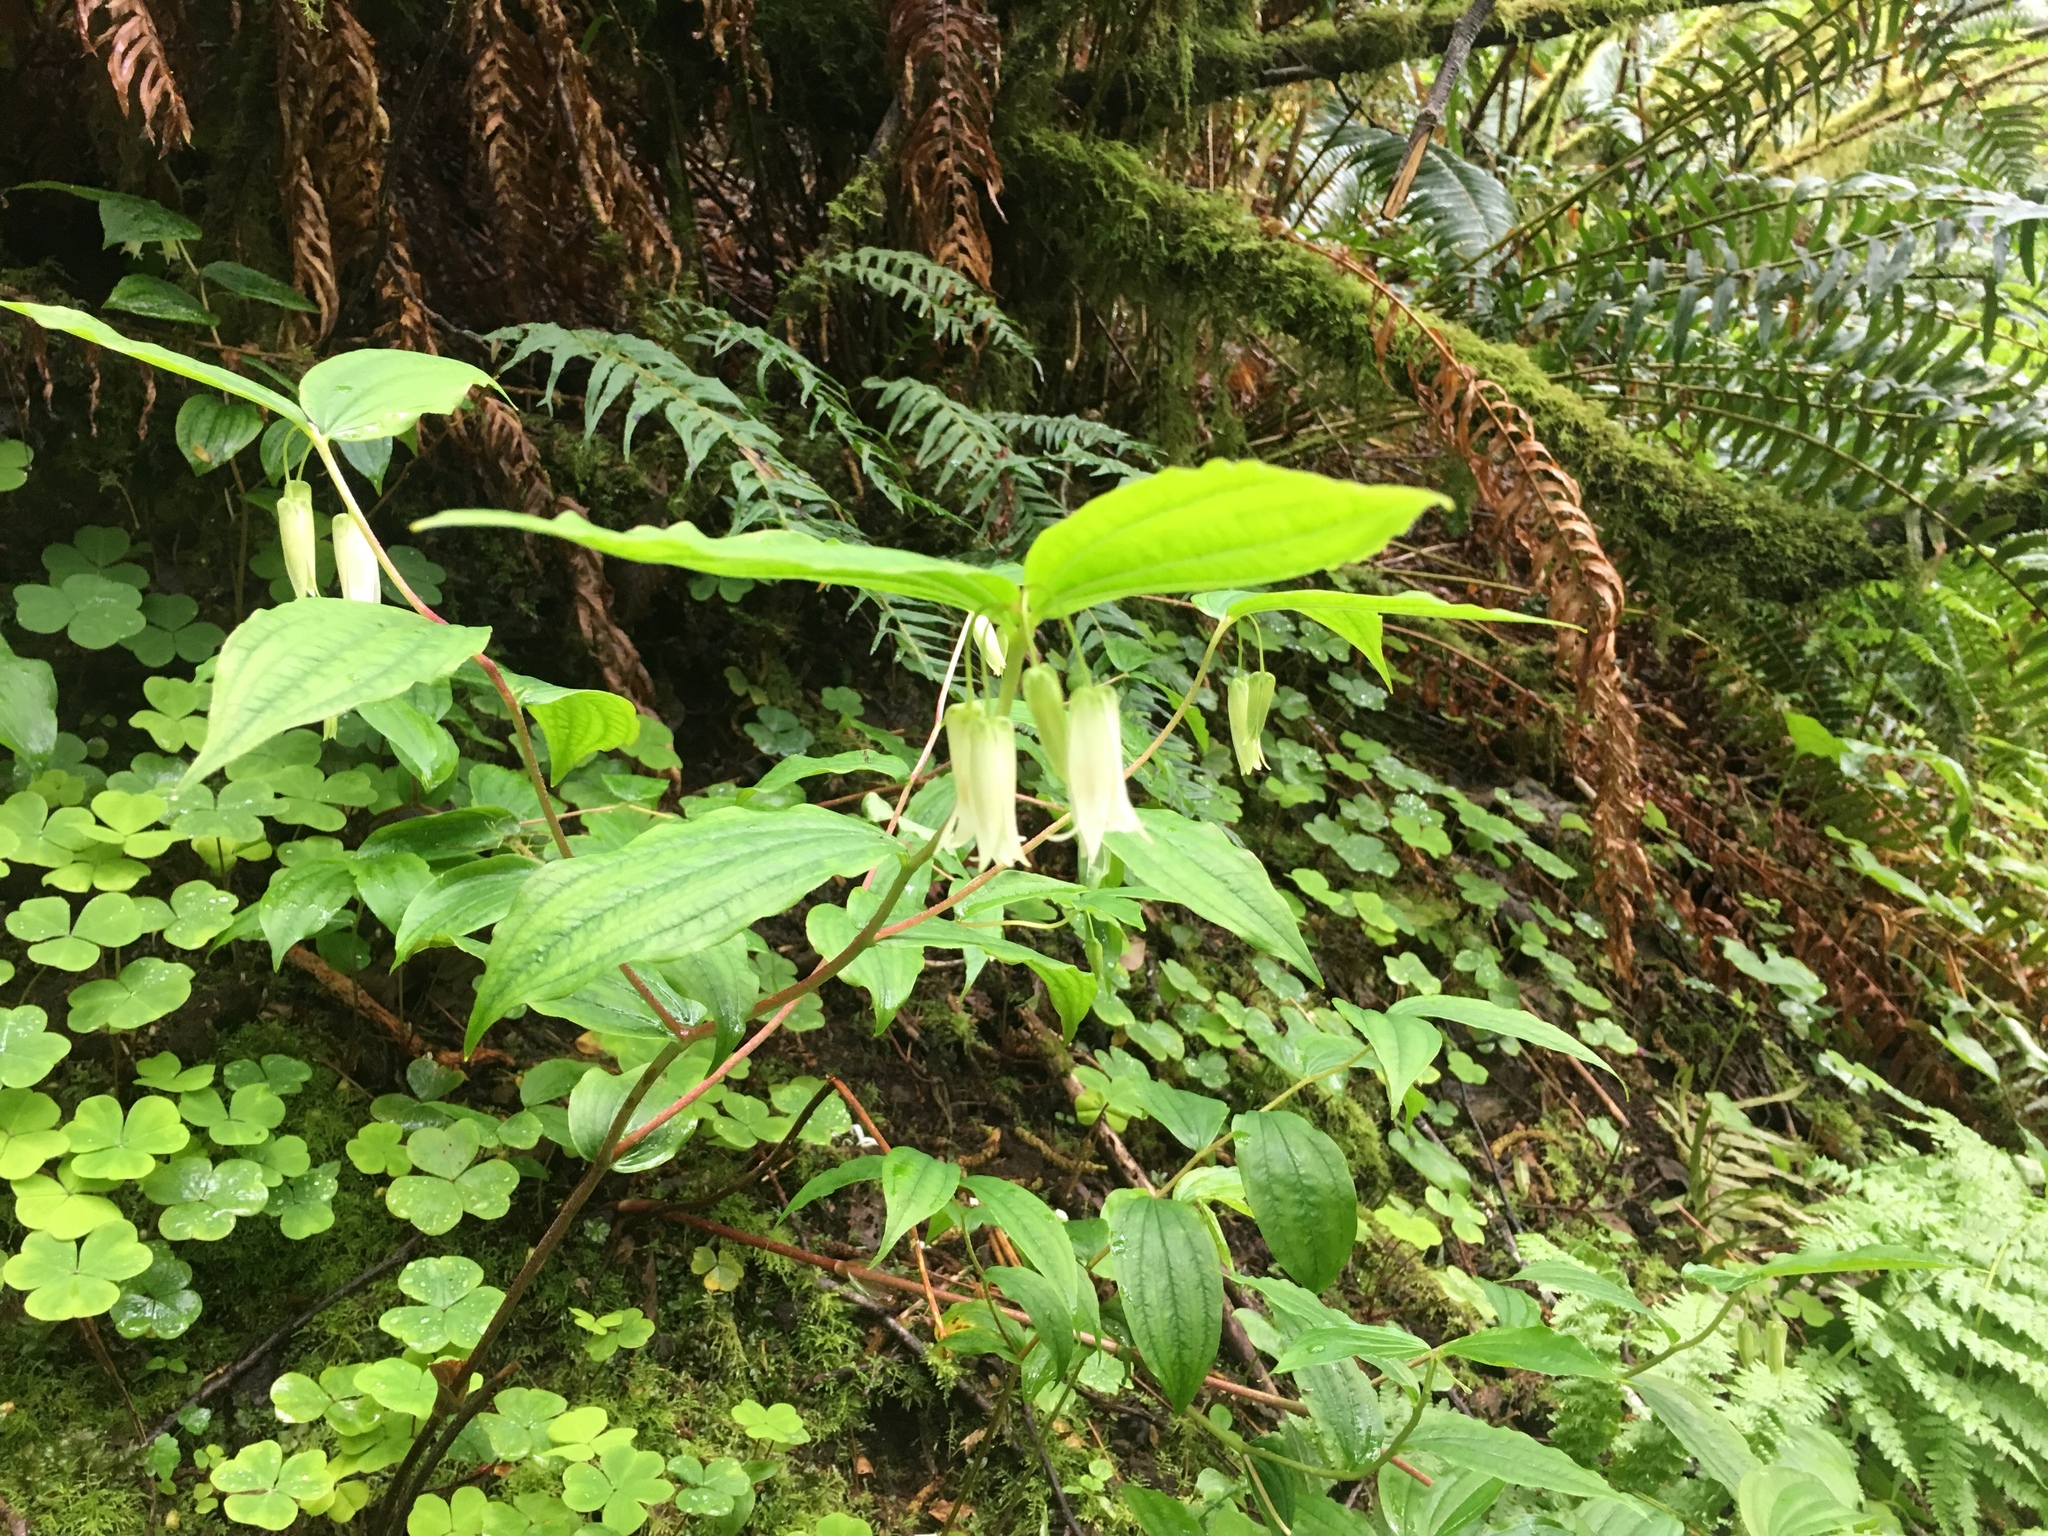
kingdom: Plantae
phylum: Tracheophyta
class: Liliopsida
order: Liliales
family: Liliaceae
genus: Prosartes
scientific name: Prosartes smithii
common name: Fairy-lantern
